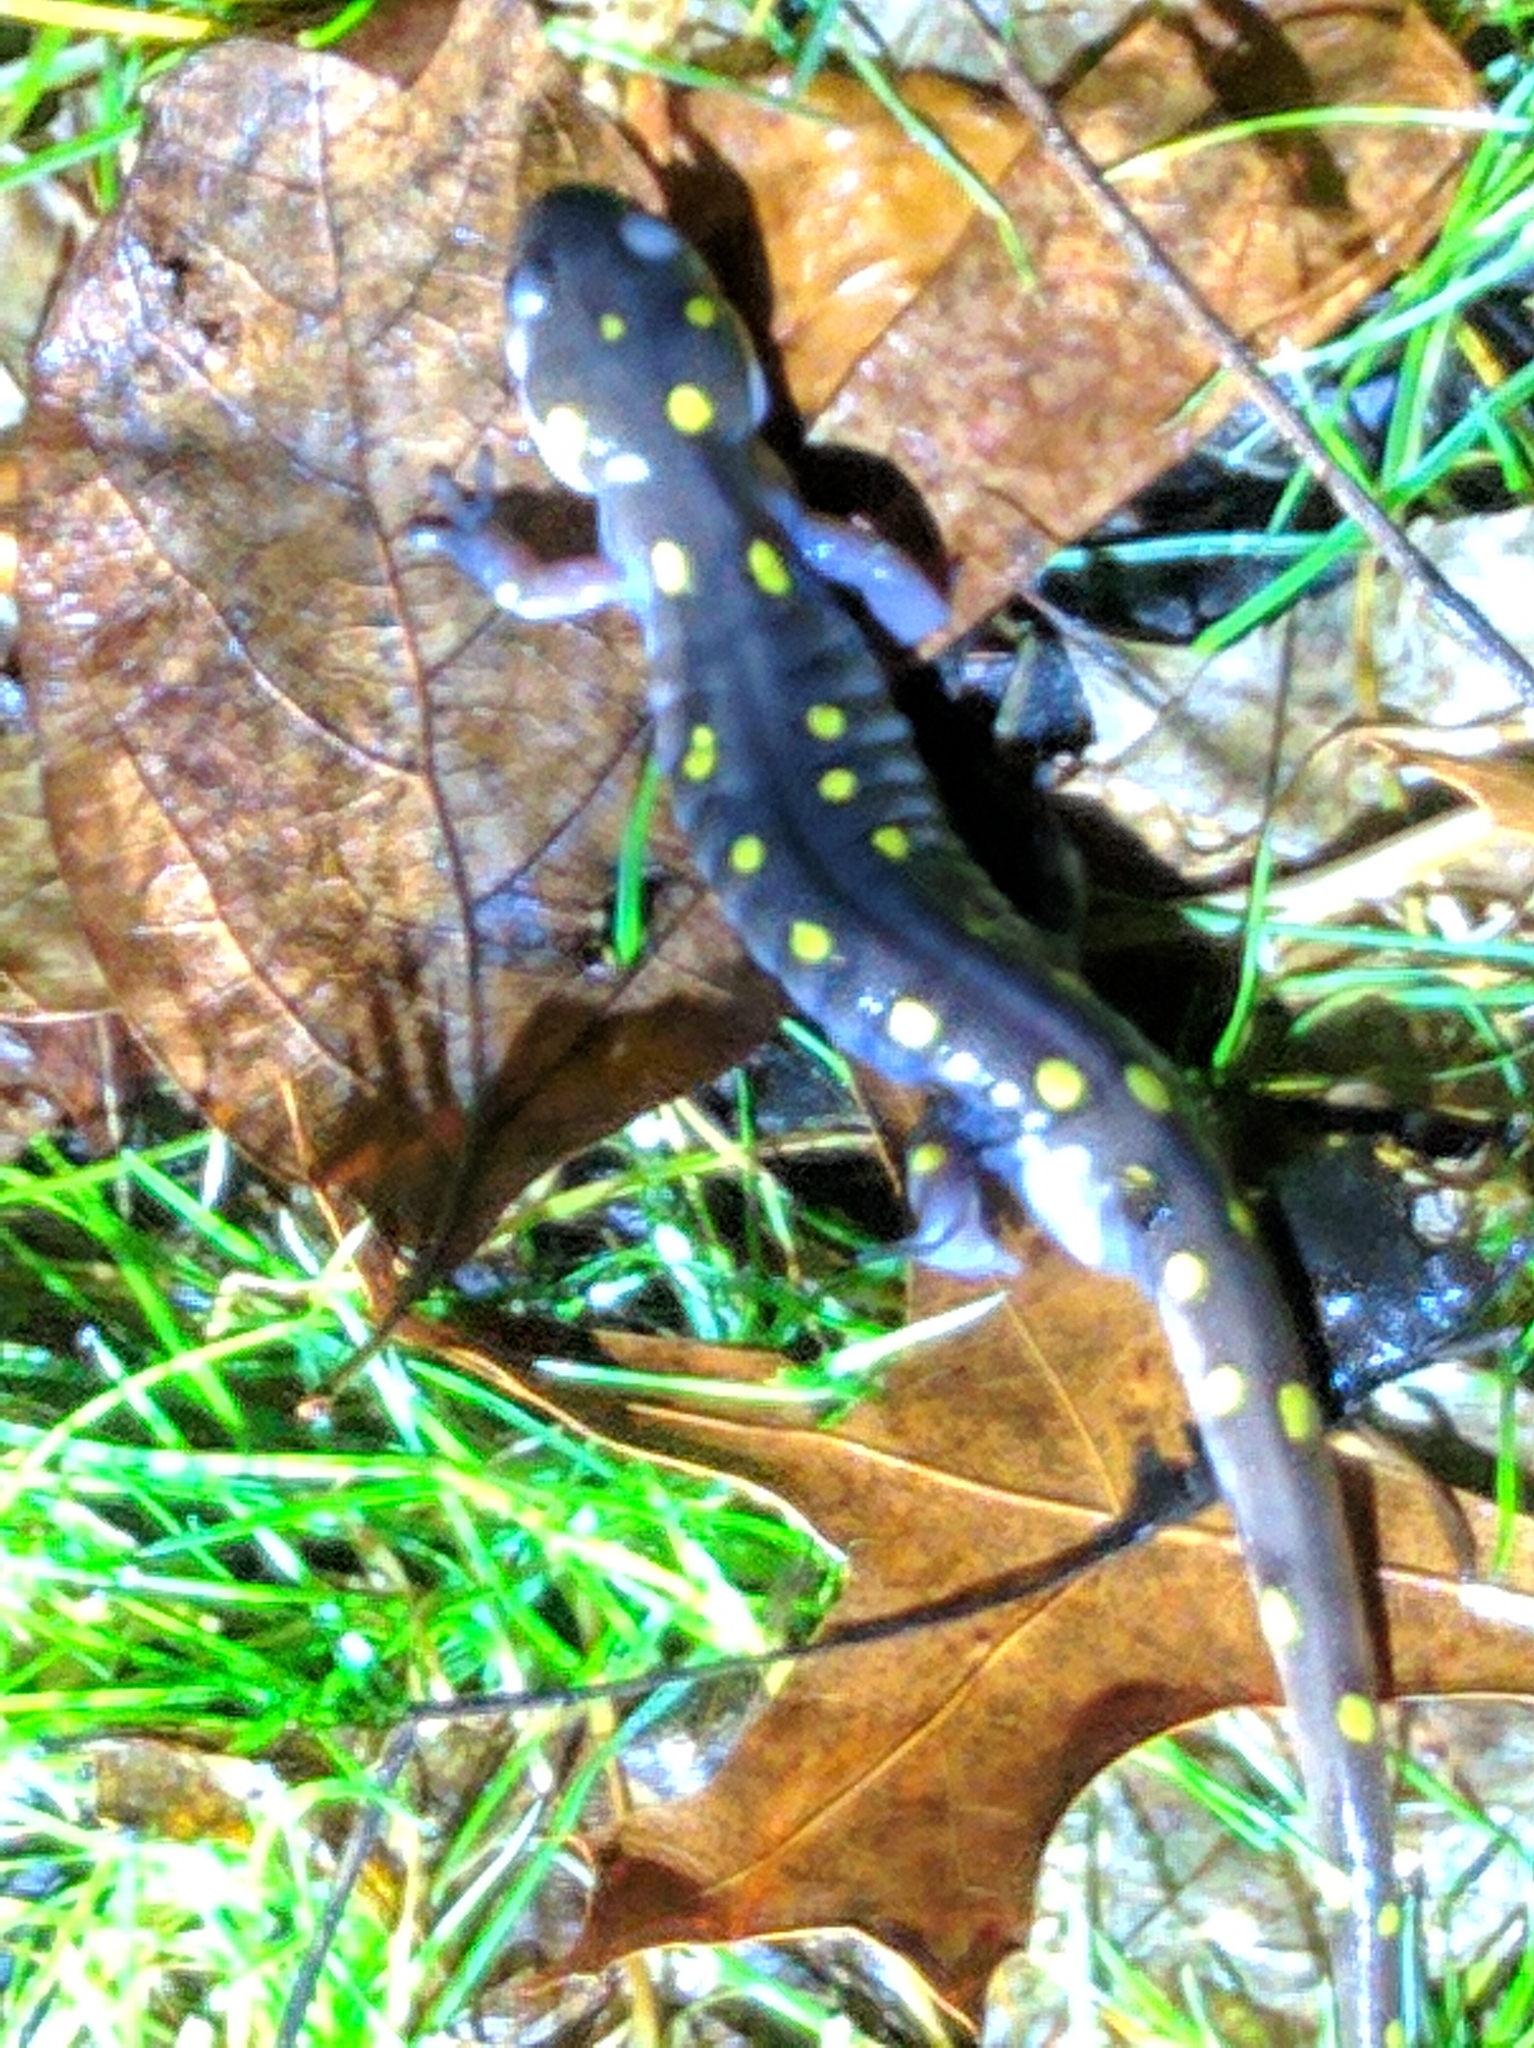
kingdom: Animalia
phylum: Chordata
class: Amphibia
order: Caudata
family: Ambystomatidae
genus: Ambystoma
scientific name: Ambystoma maculatum
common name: Spotted salamander
